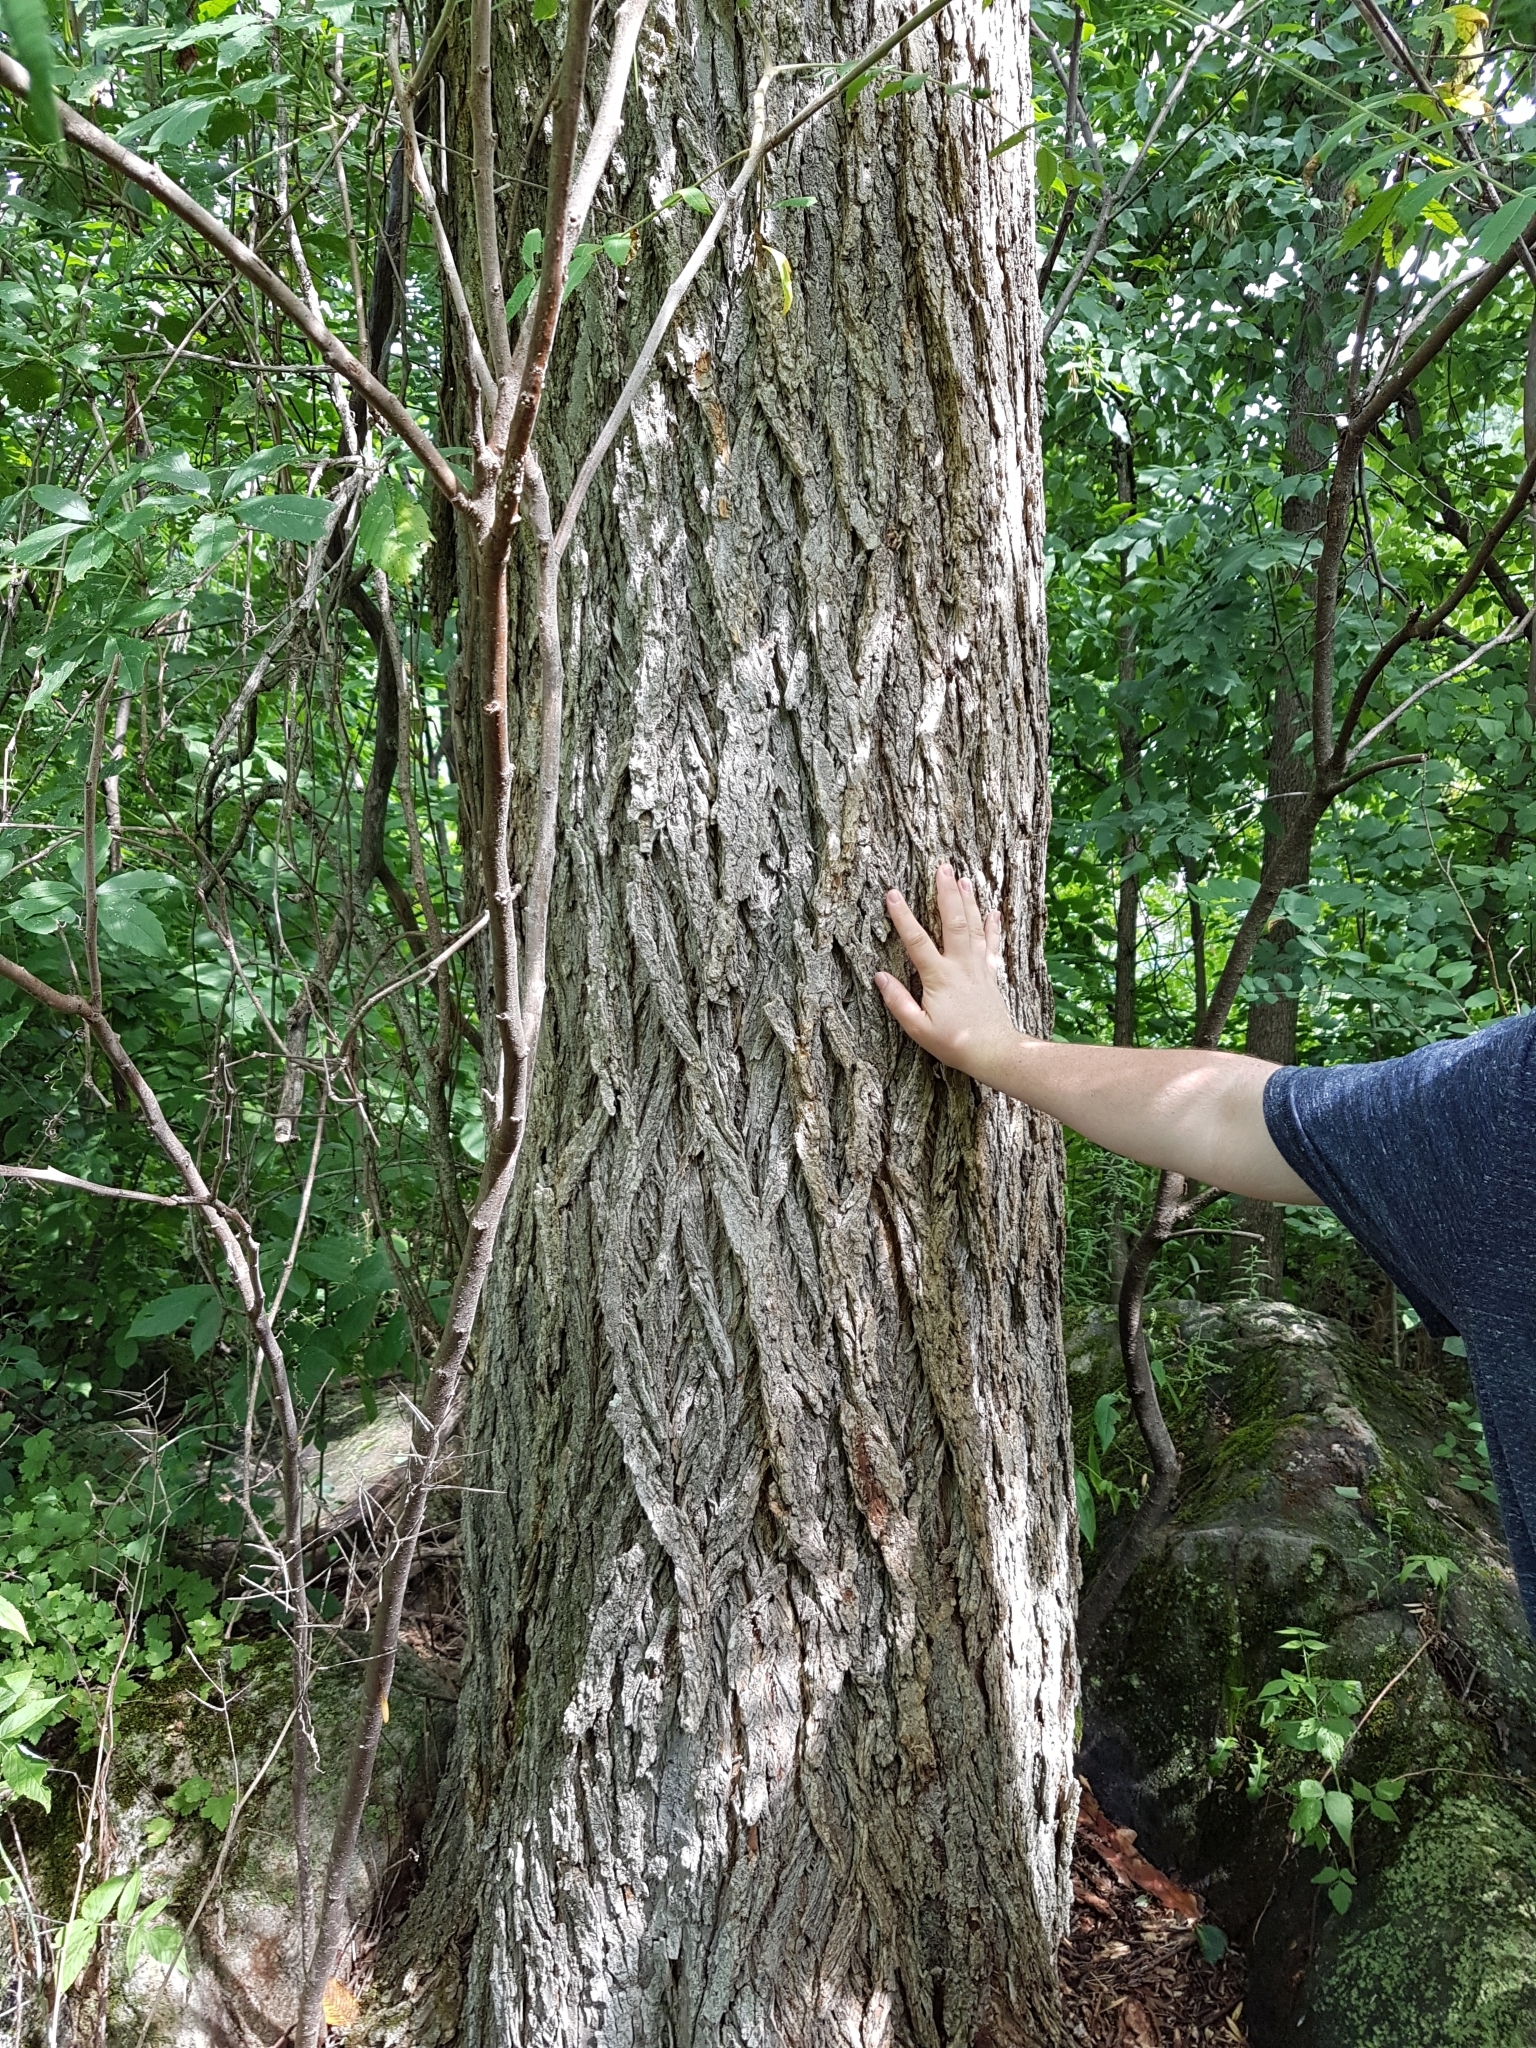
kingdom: Plantae
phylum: Tracheophyta
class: Magnoliopsida
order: Rosales
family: Ulmaceae
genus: Ulmus
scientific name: Ulmus americana
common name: American elm
